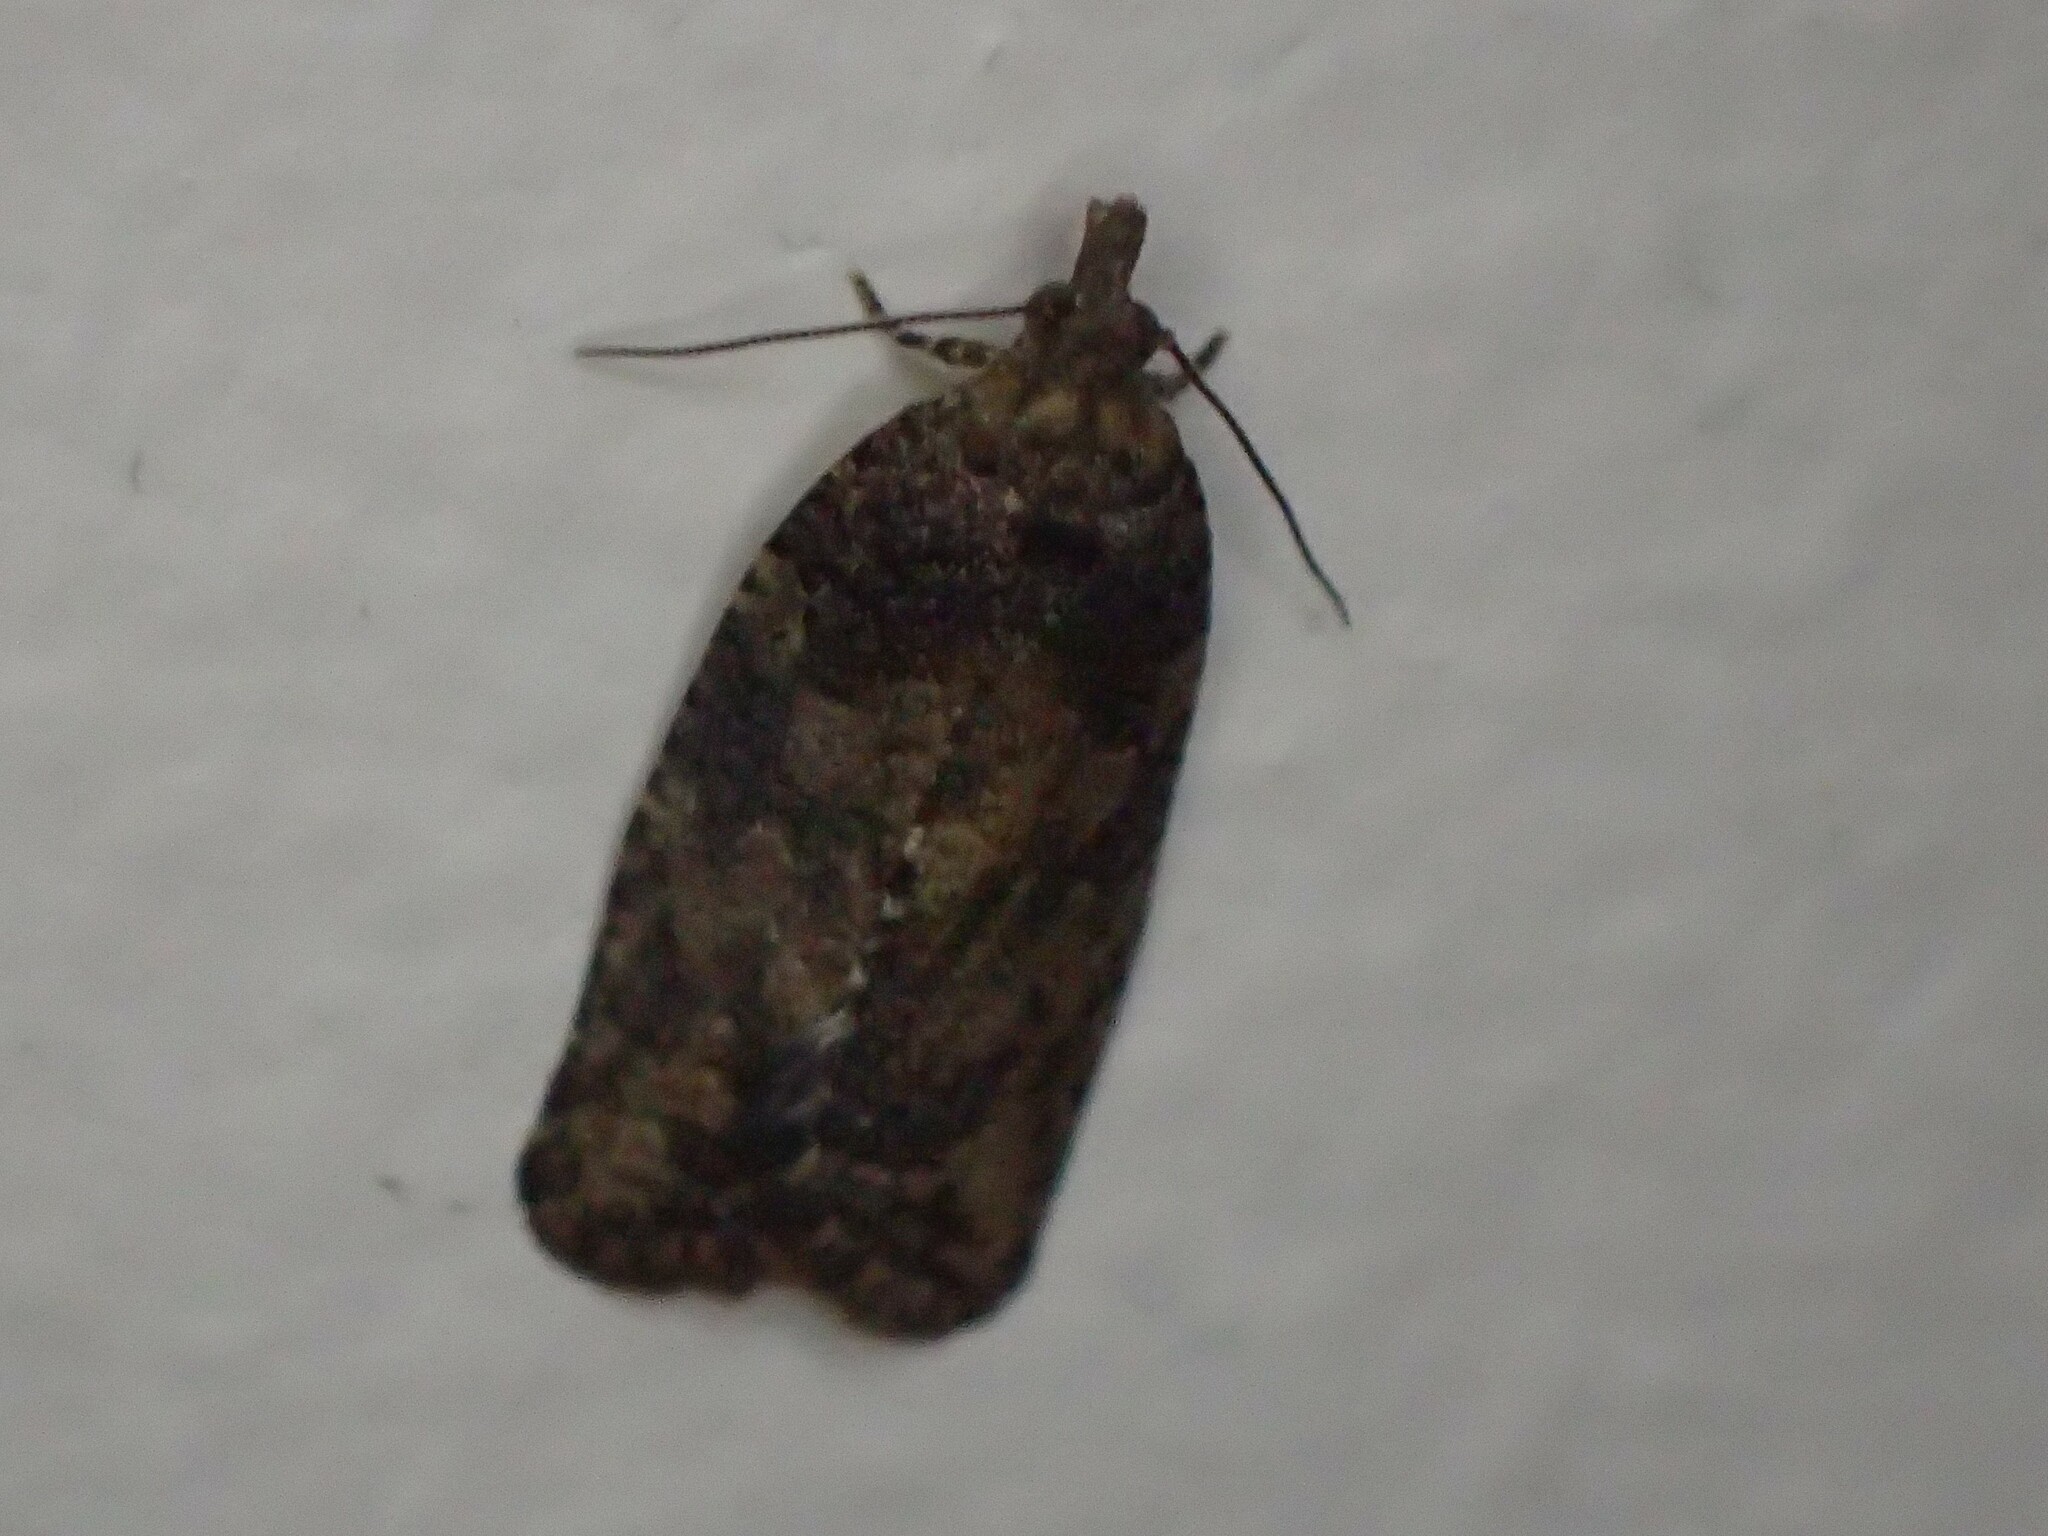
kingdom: Animalia
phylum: Arthropoda
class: Insecta
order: Lepidoptera
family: Tortricidae
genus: Capua
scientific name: Capua intractana
